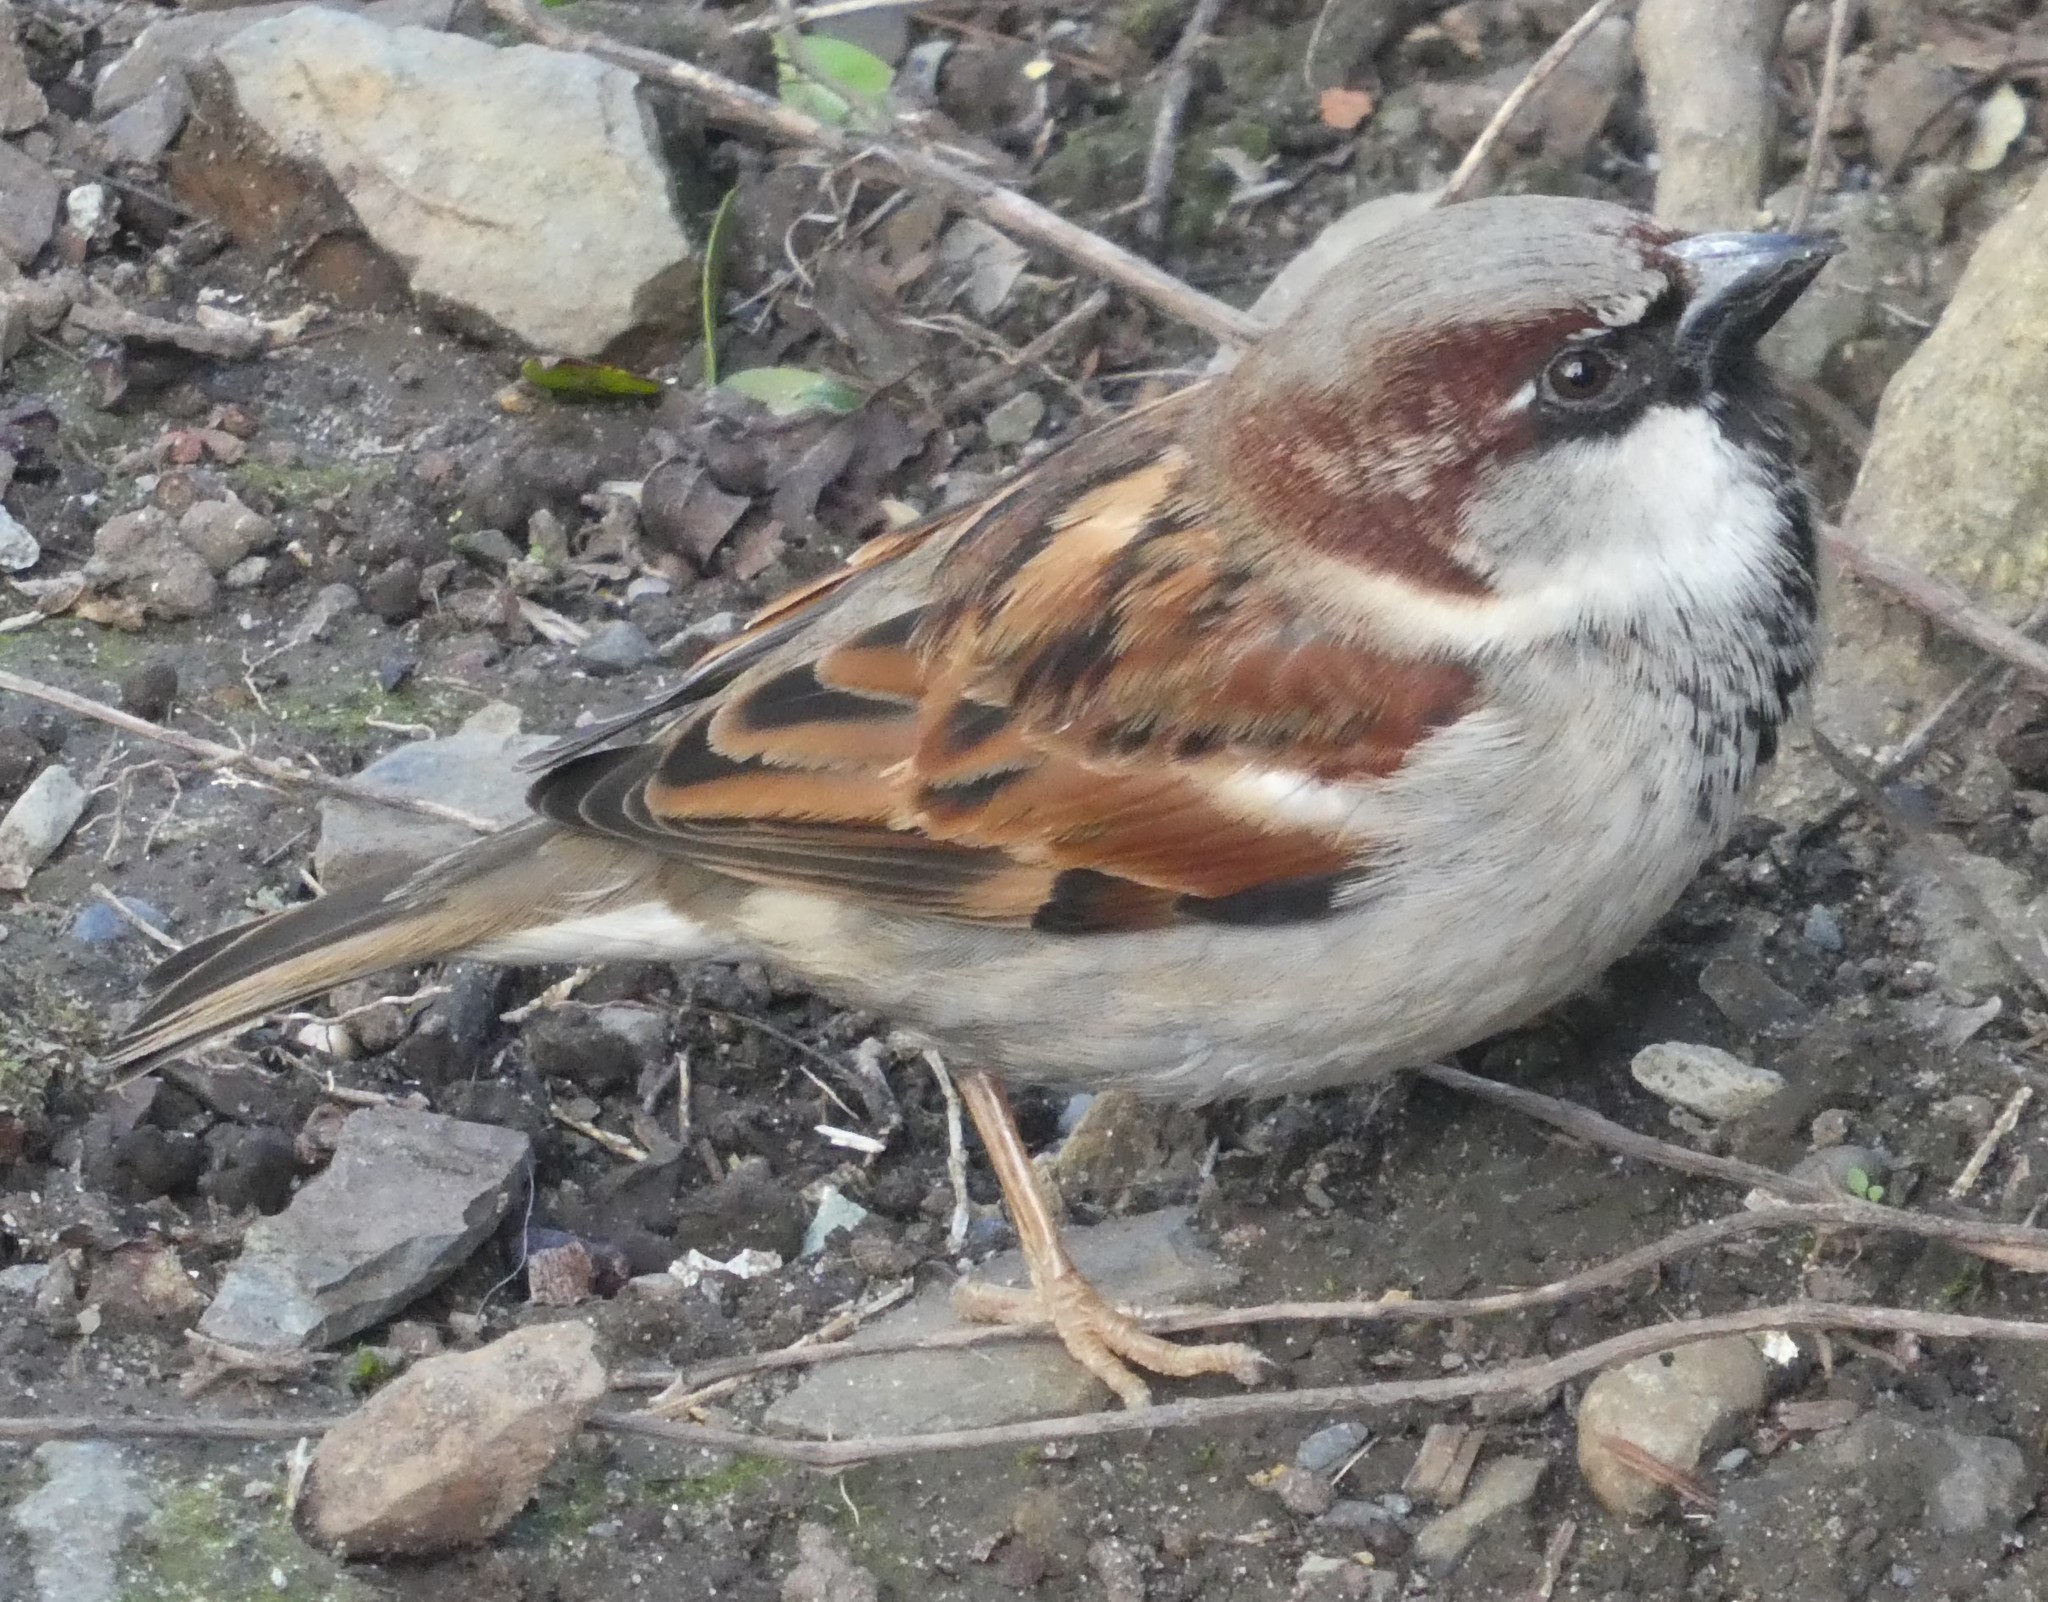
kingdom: Animalia
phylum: Chordata
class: Aves
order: Passeriformes
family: Passeridae
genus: Passer
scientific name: Passer domesticus
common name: House sparrow
